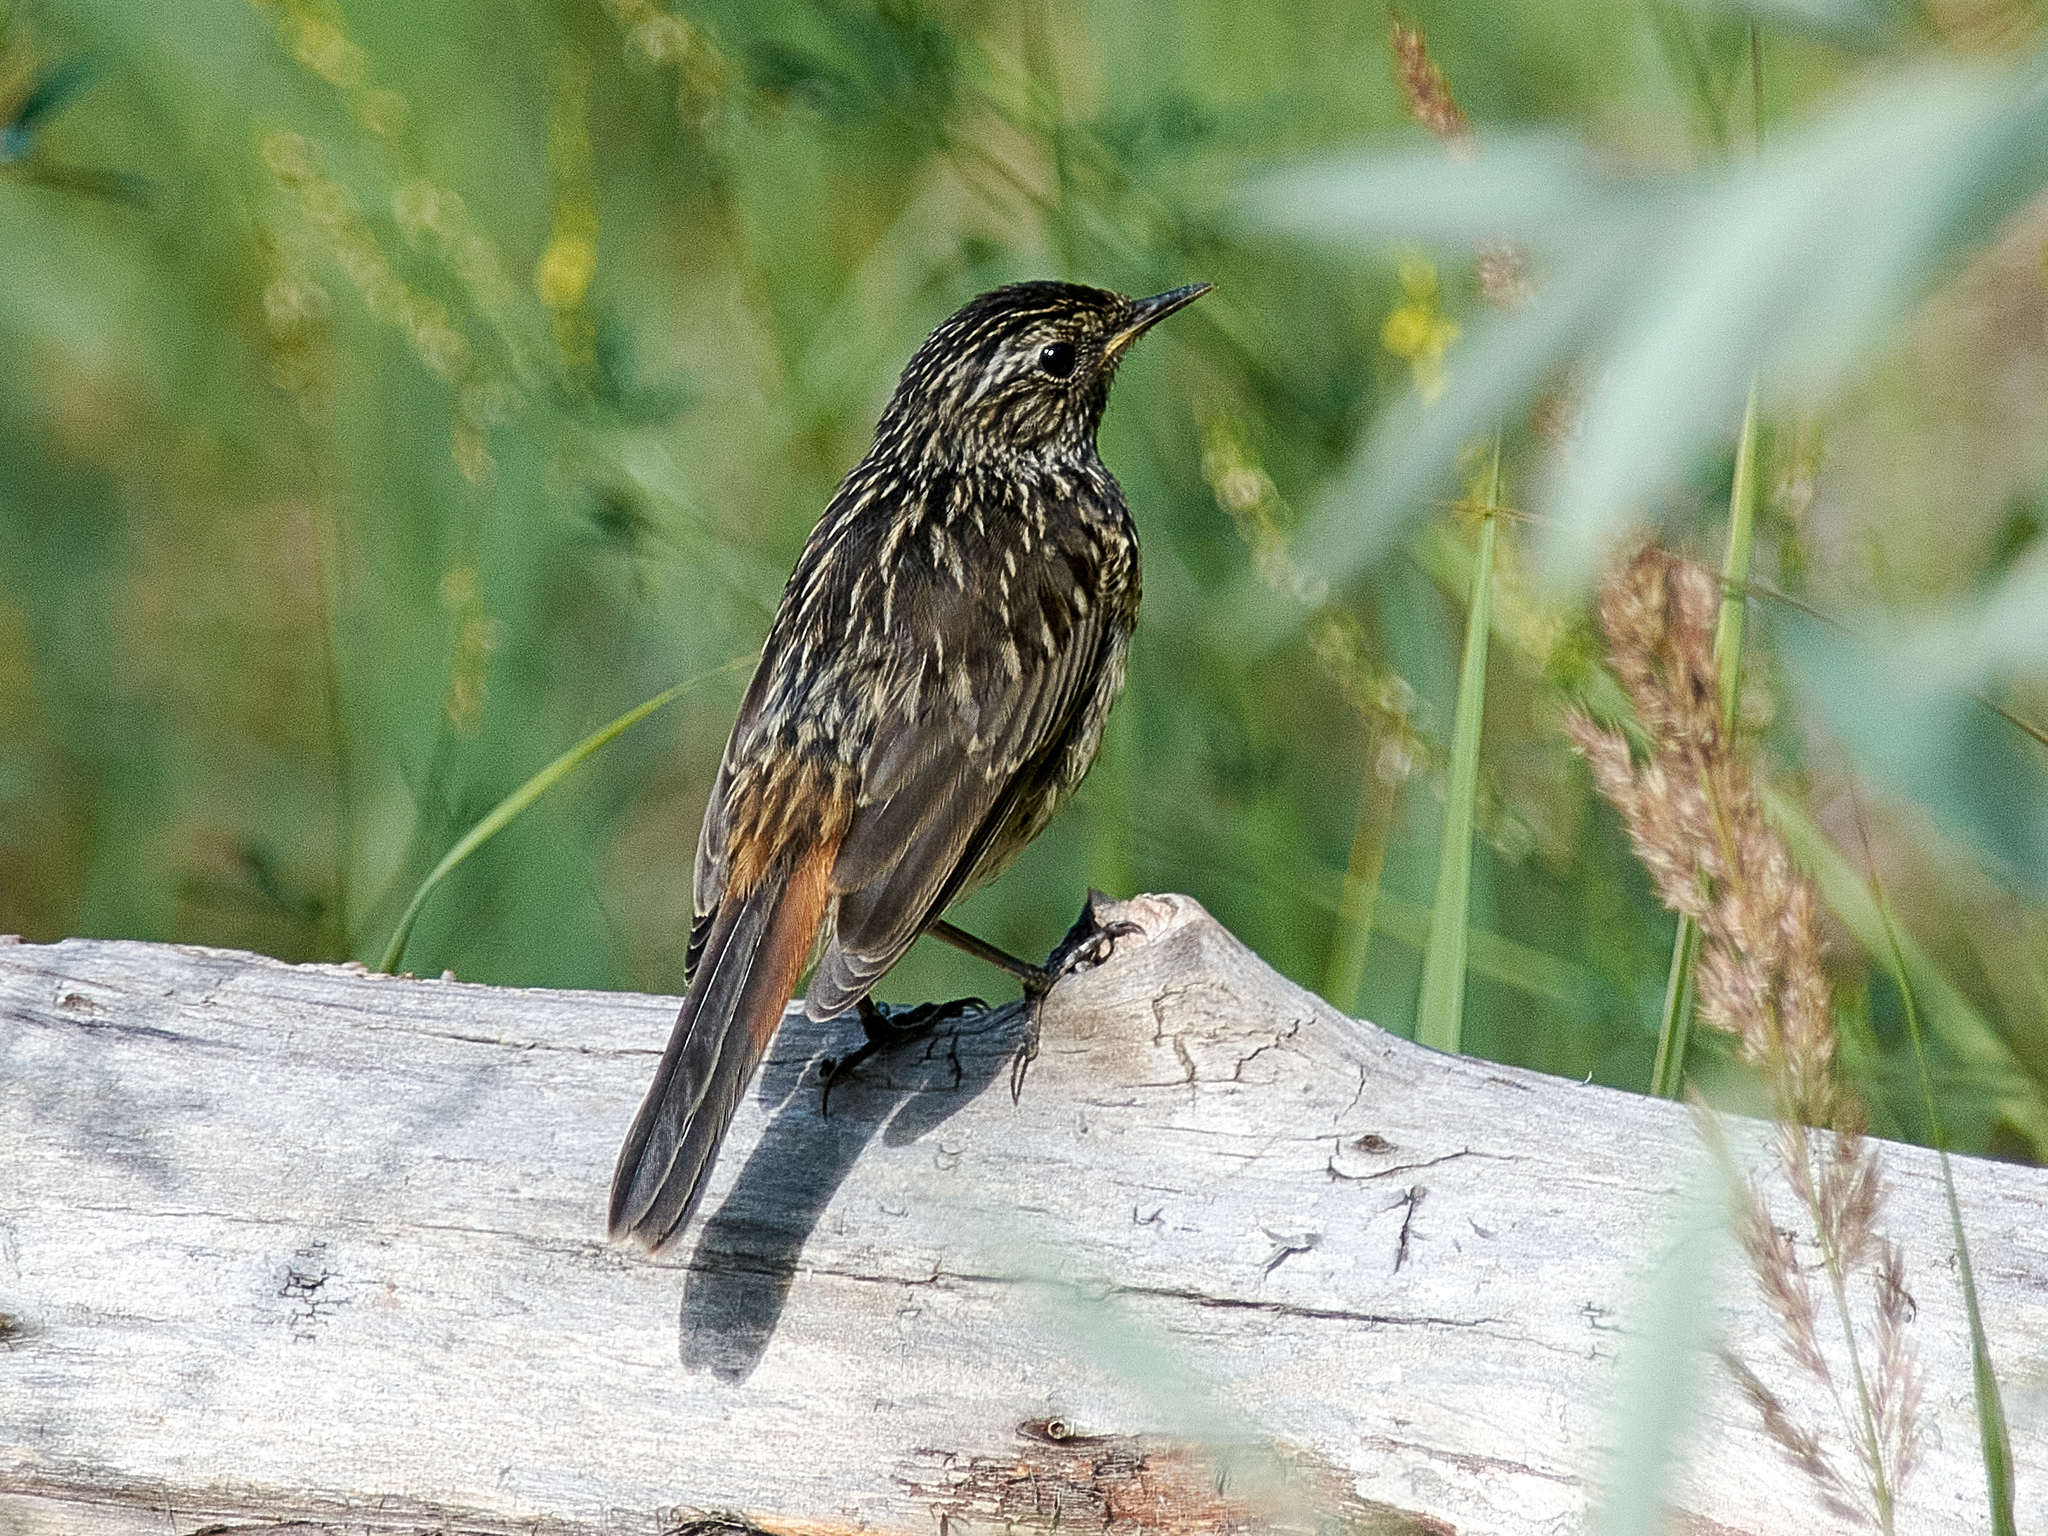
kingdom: Animalia
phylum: Chordata
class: Aves
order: Passeriformes
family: Muscicapidae
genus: Luscinia
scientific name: Luscinia svecica
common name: Bluethroat
